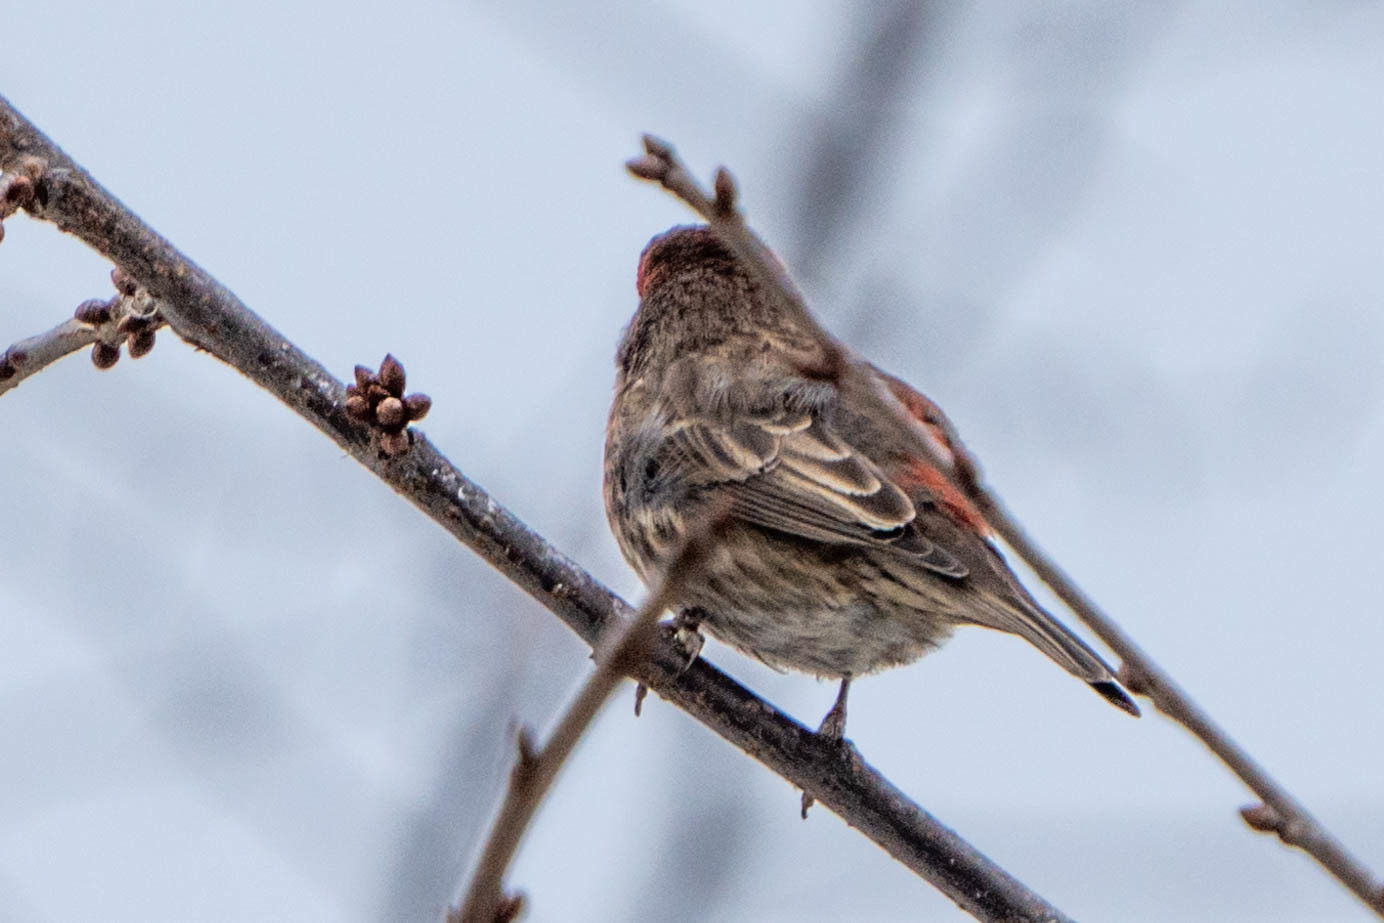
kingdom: Animalia
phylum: Chordata
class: Aves
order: Passeriformes
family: Fringillidae
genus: Haemorhous
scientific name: Haemorhous mexicanus
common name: House finch
